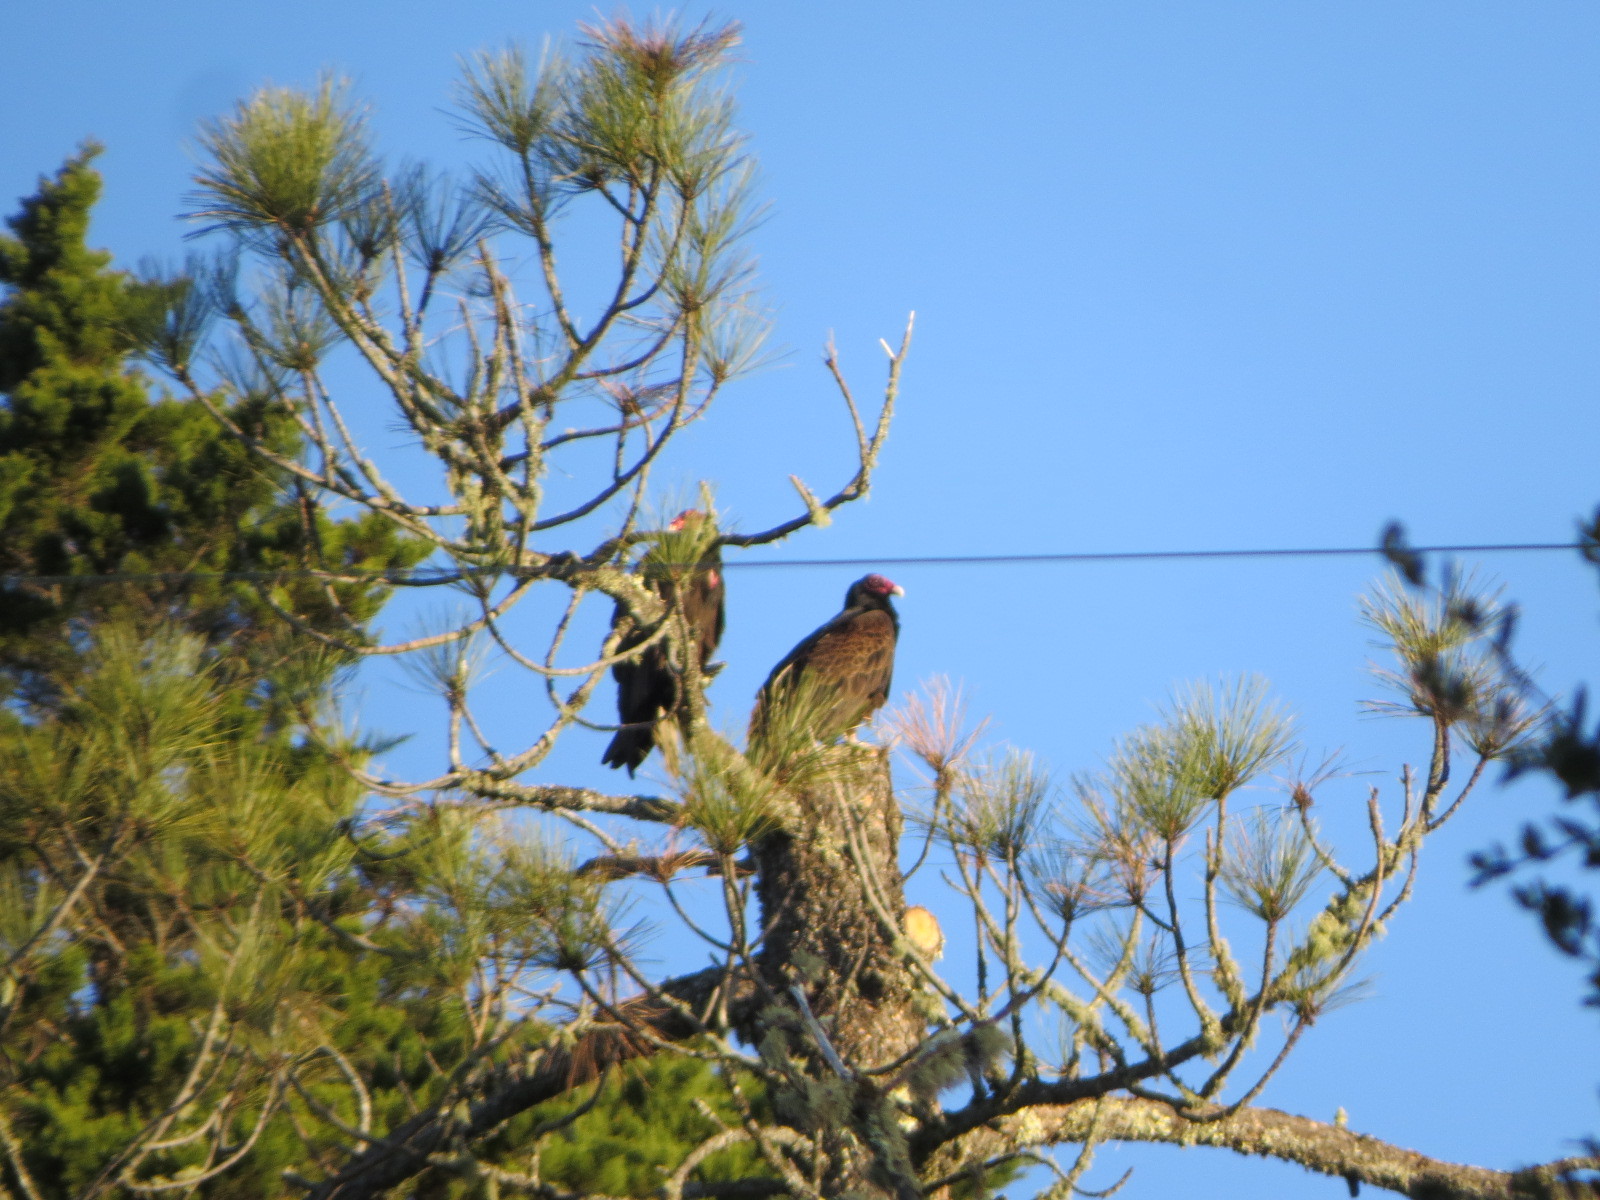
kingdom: Animalia
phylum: Chordata
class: Aves
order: Accipitriformes
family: Cathartidae
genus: Cathartes
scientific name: Cathartes aura
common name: Turkey vulture
